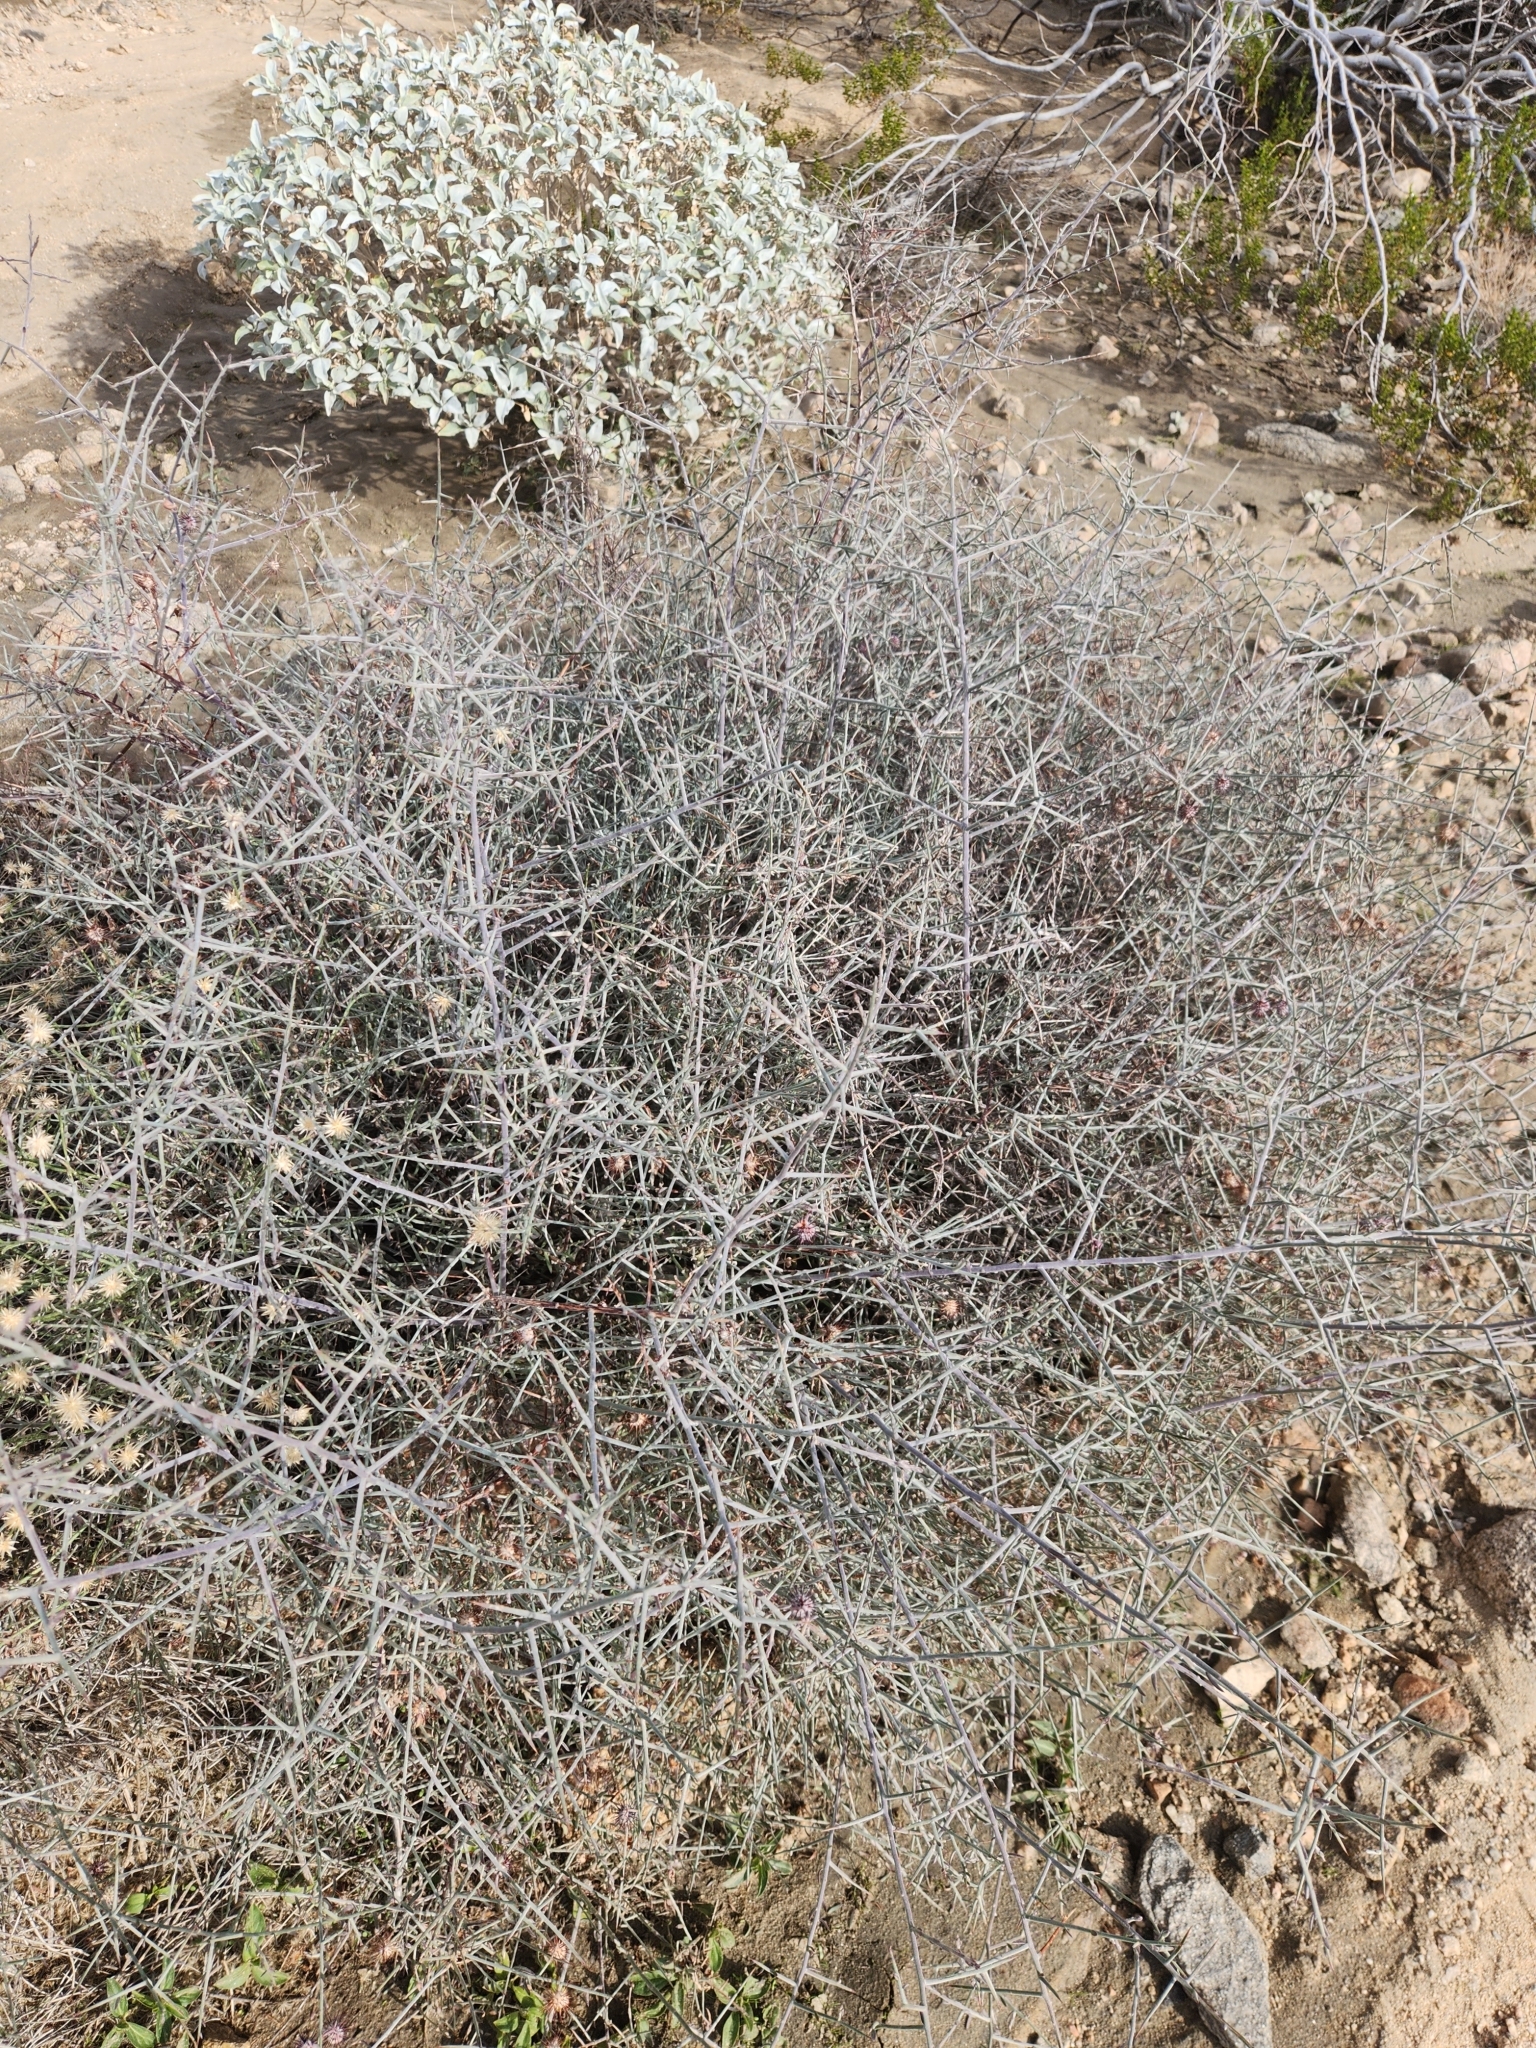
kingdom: Plantae
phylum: Tracheophyta
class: Magnoliopsida
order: Zygophyllales
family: Krameriaceae
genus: Krameria
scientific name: Krameria bicolor
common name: White ratany
